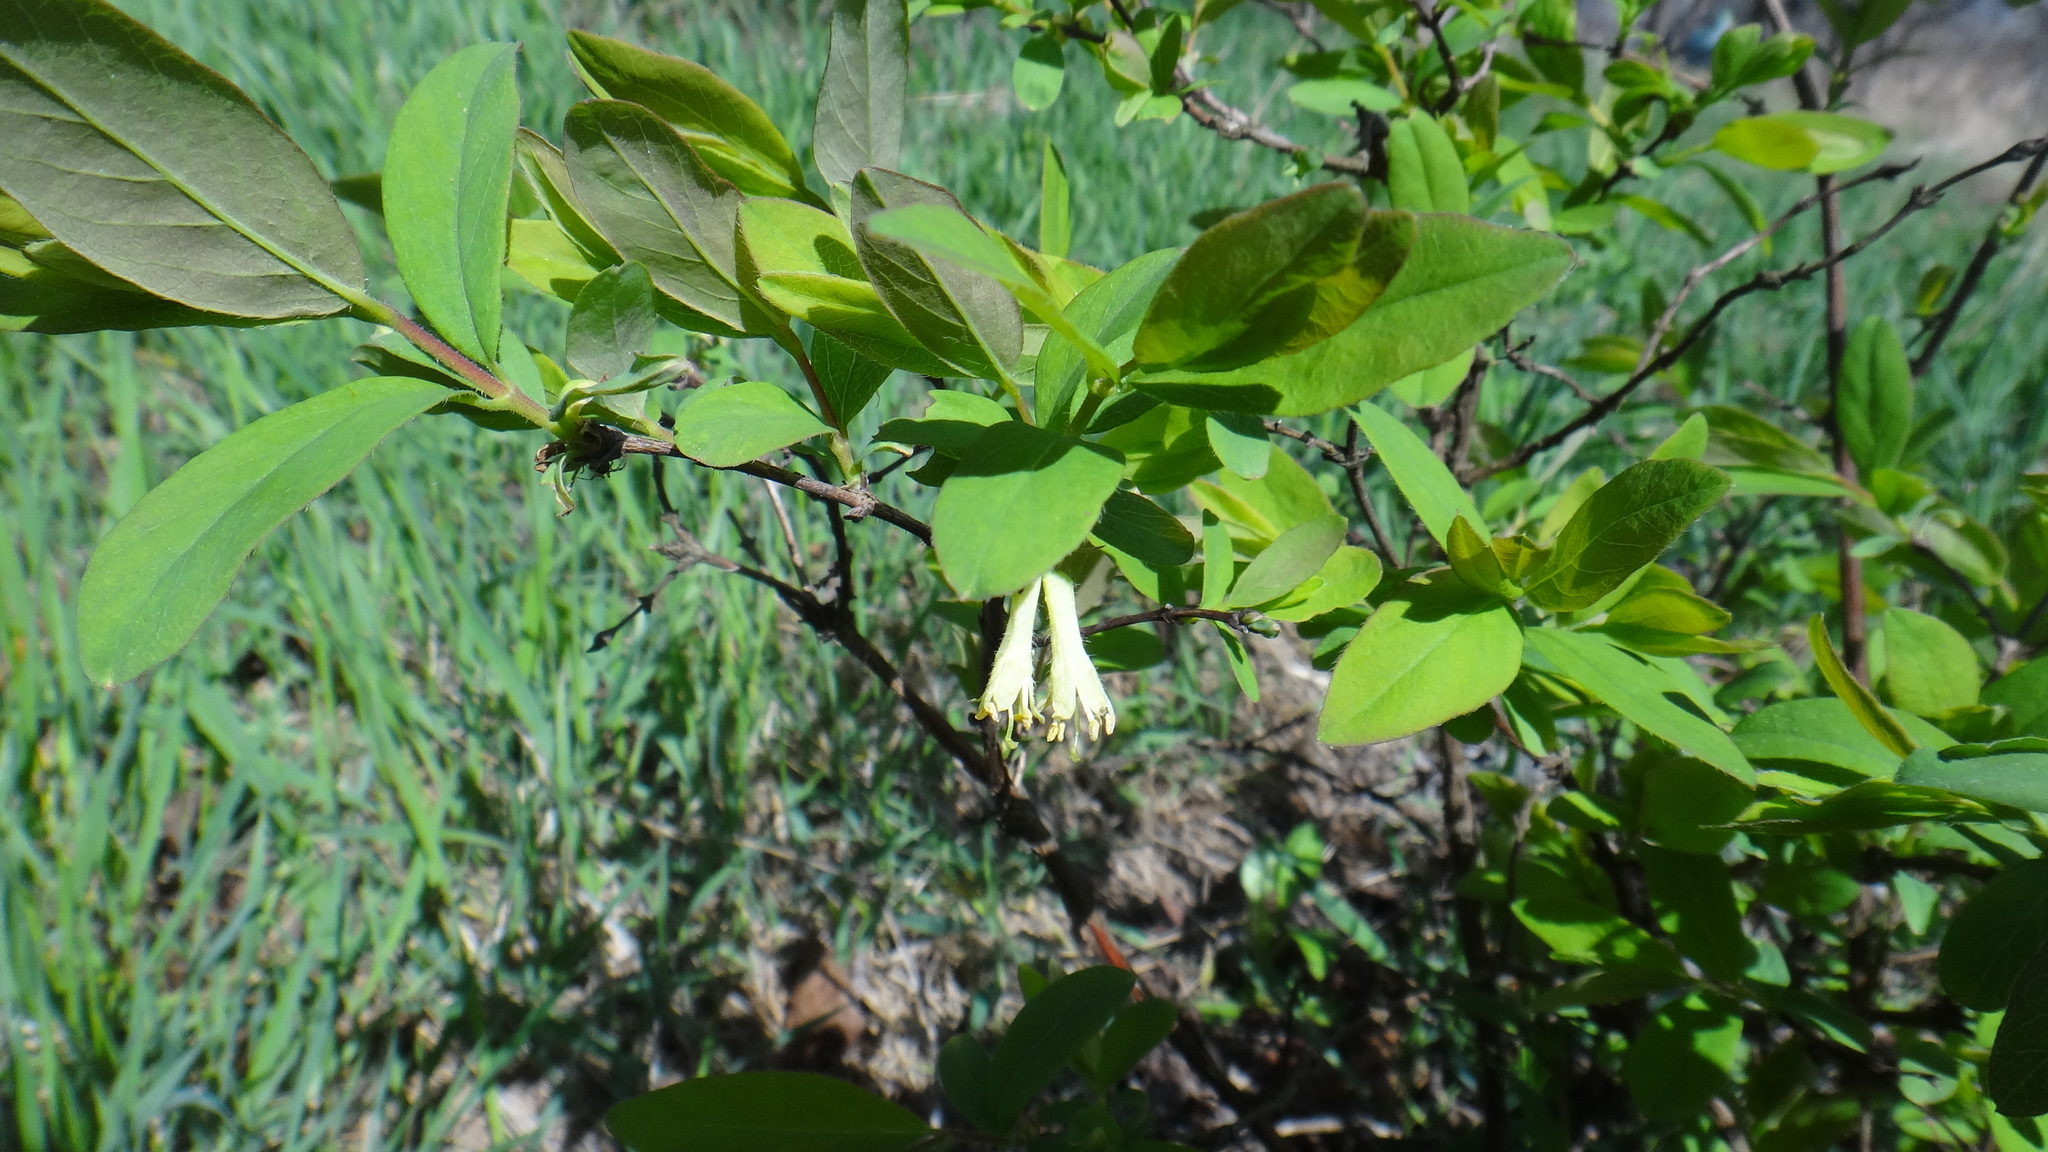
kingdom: Plantae
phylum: Tracheophyta
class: Magnoliopsida
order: Dipsacales
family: Caprifoliaceae
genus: Lonicera
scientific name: Lonicera caerulea
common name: Blue honeysuckle
